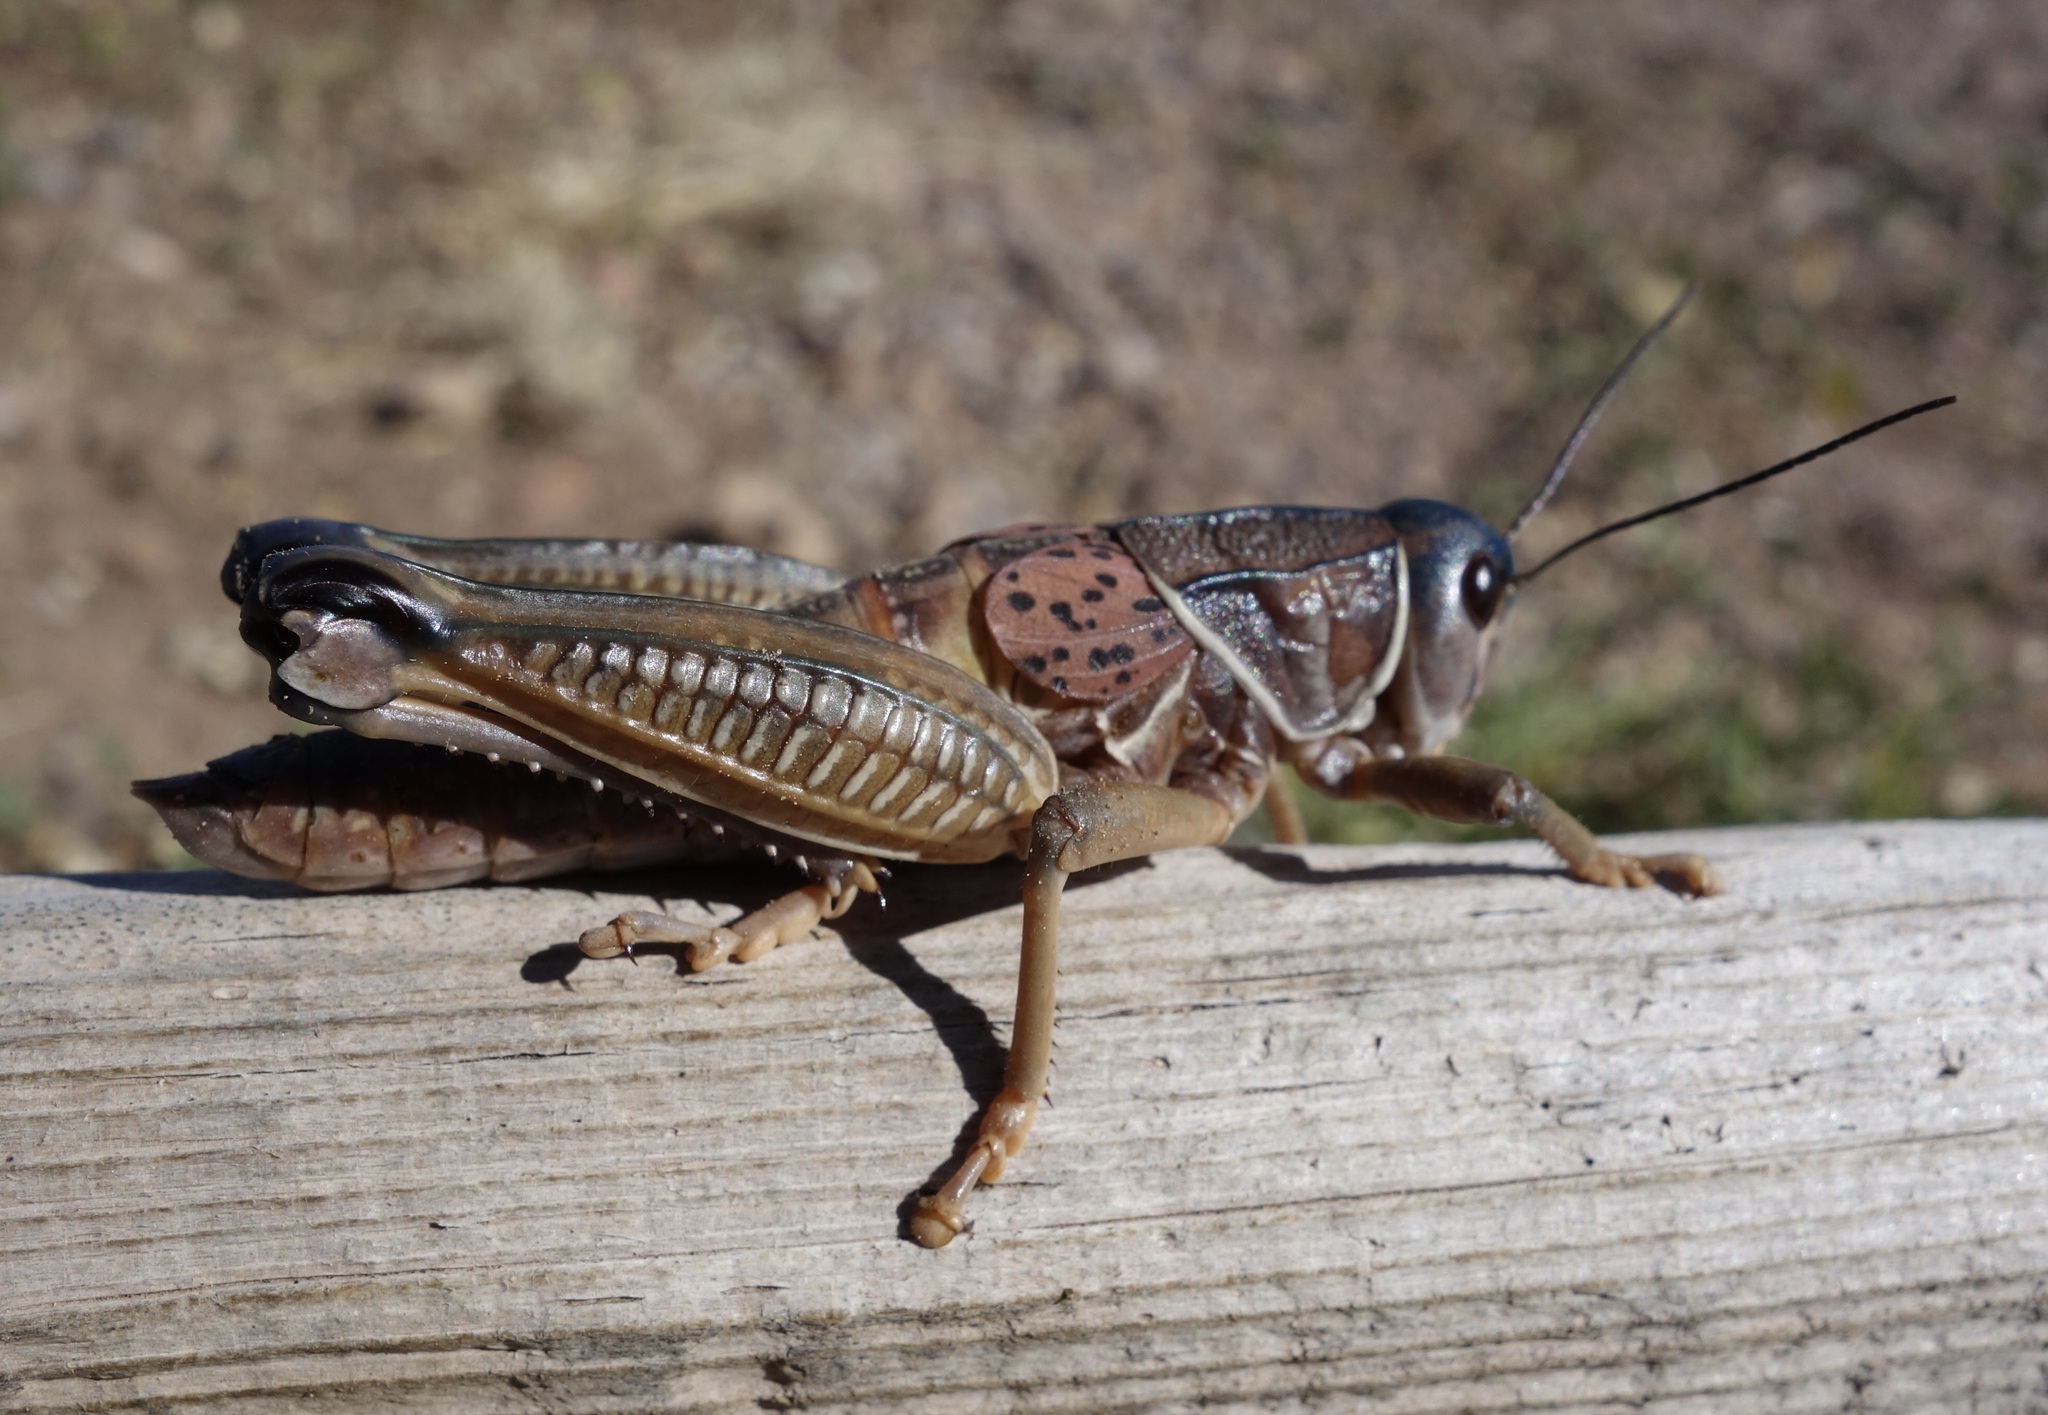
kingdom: Animalia
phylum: Arthropoda
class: Insecta
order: Orthoptera
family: Romaleidae
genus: Brachystola
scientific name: Brachystola magna
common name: Plains lubber grasshopper
